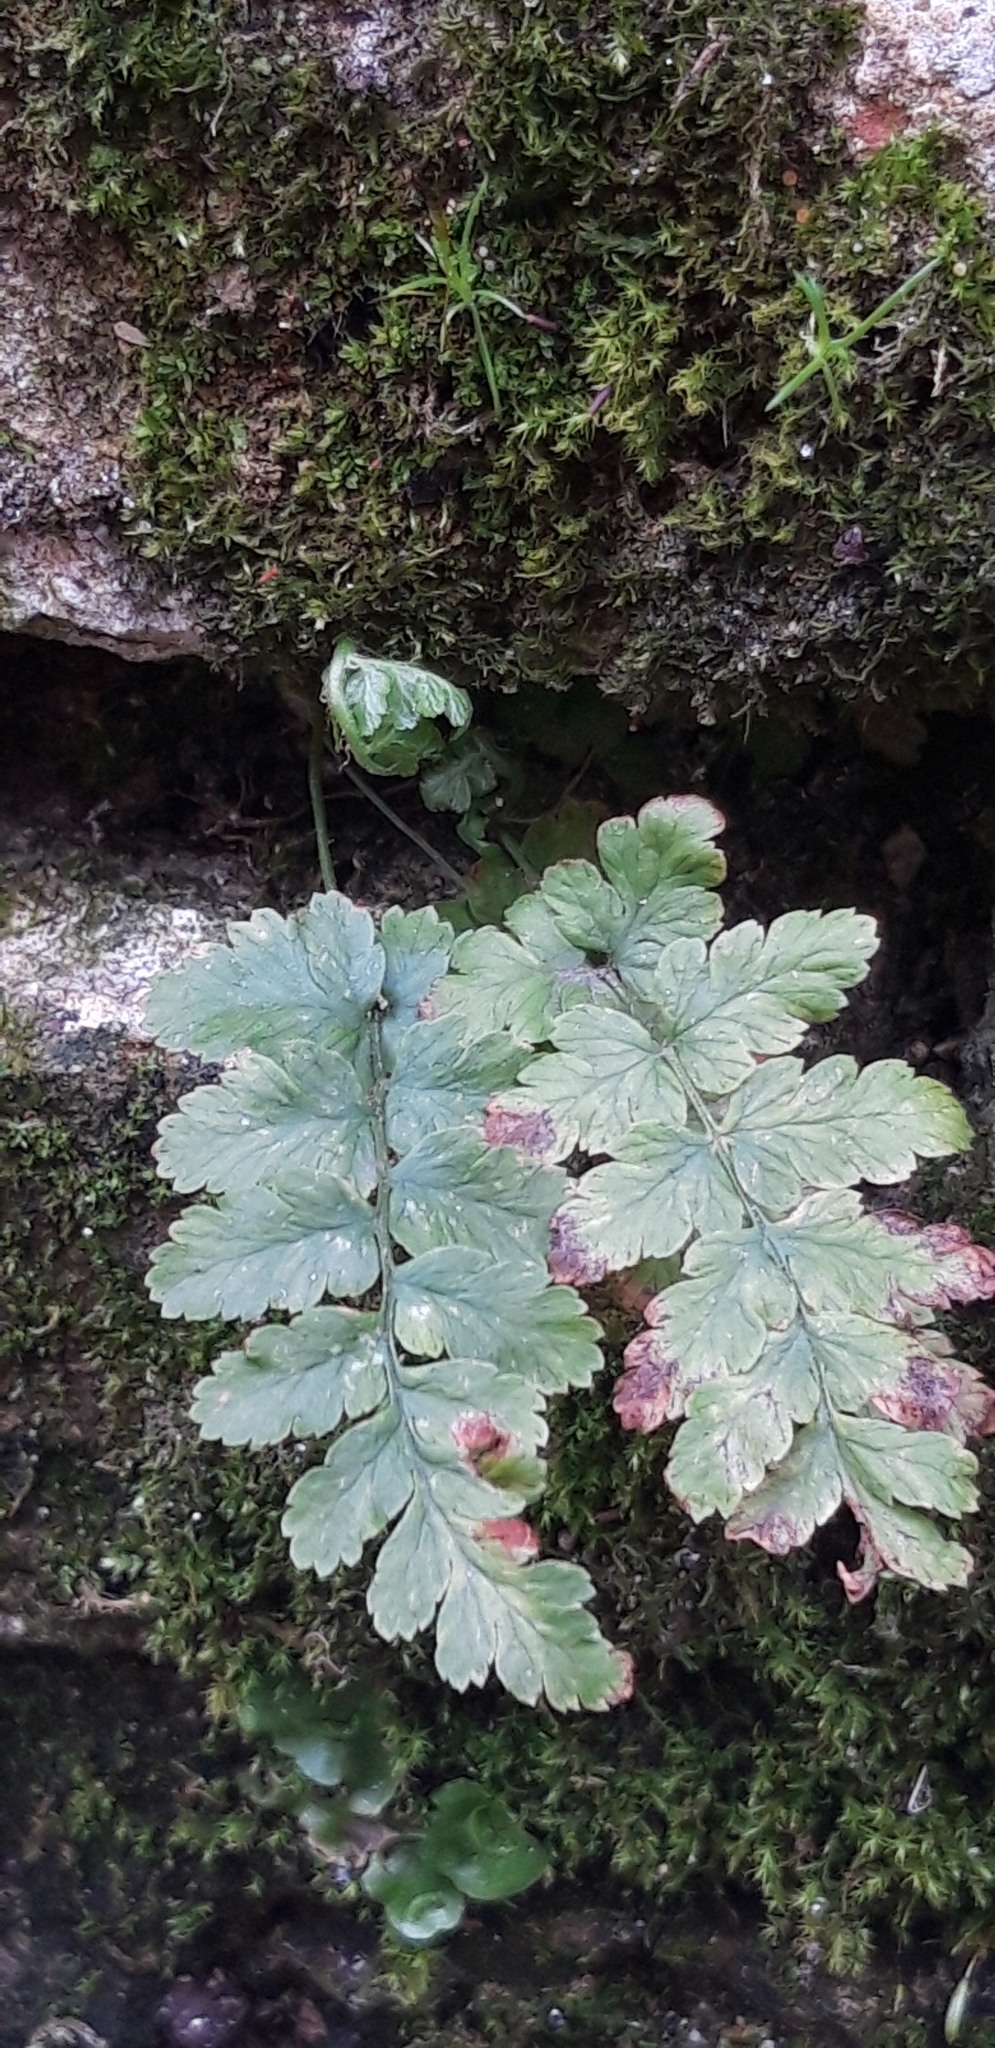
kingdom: Plantae
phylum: Tracheophyta
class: Polypodiopsida
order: Polypodiales
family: Dryopteridaceae
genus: Dryopteris
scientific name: Dryopteris filix-mas
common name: Male fern
